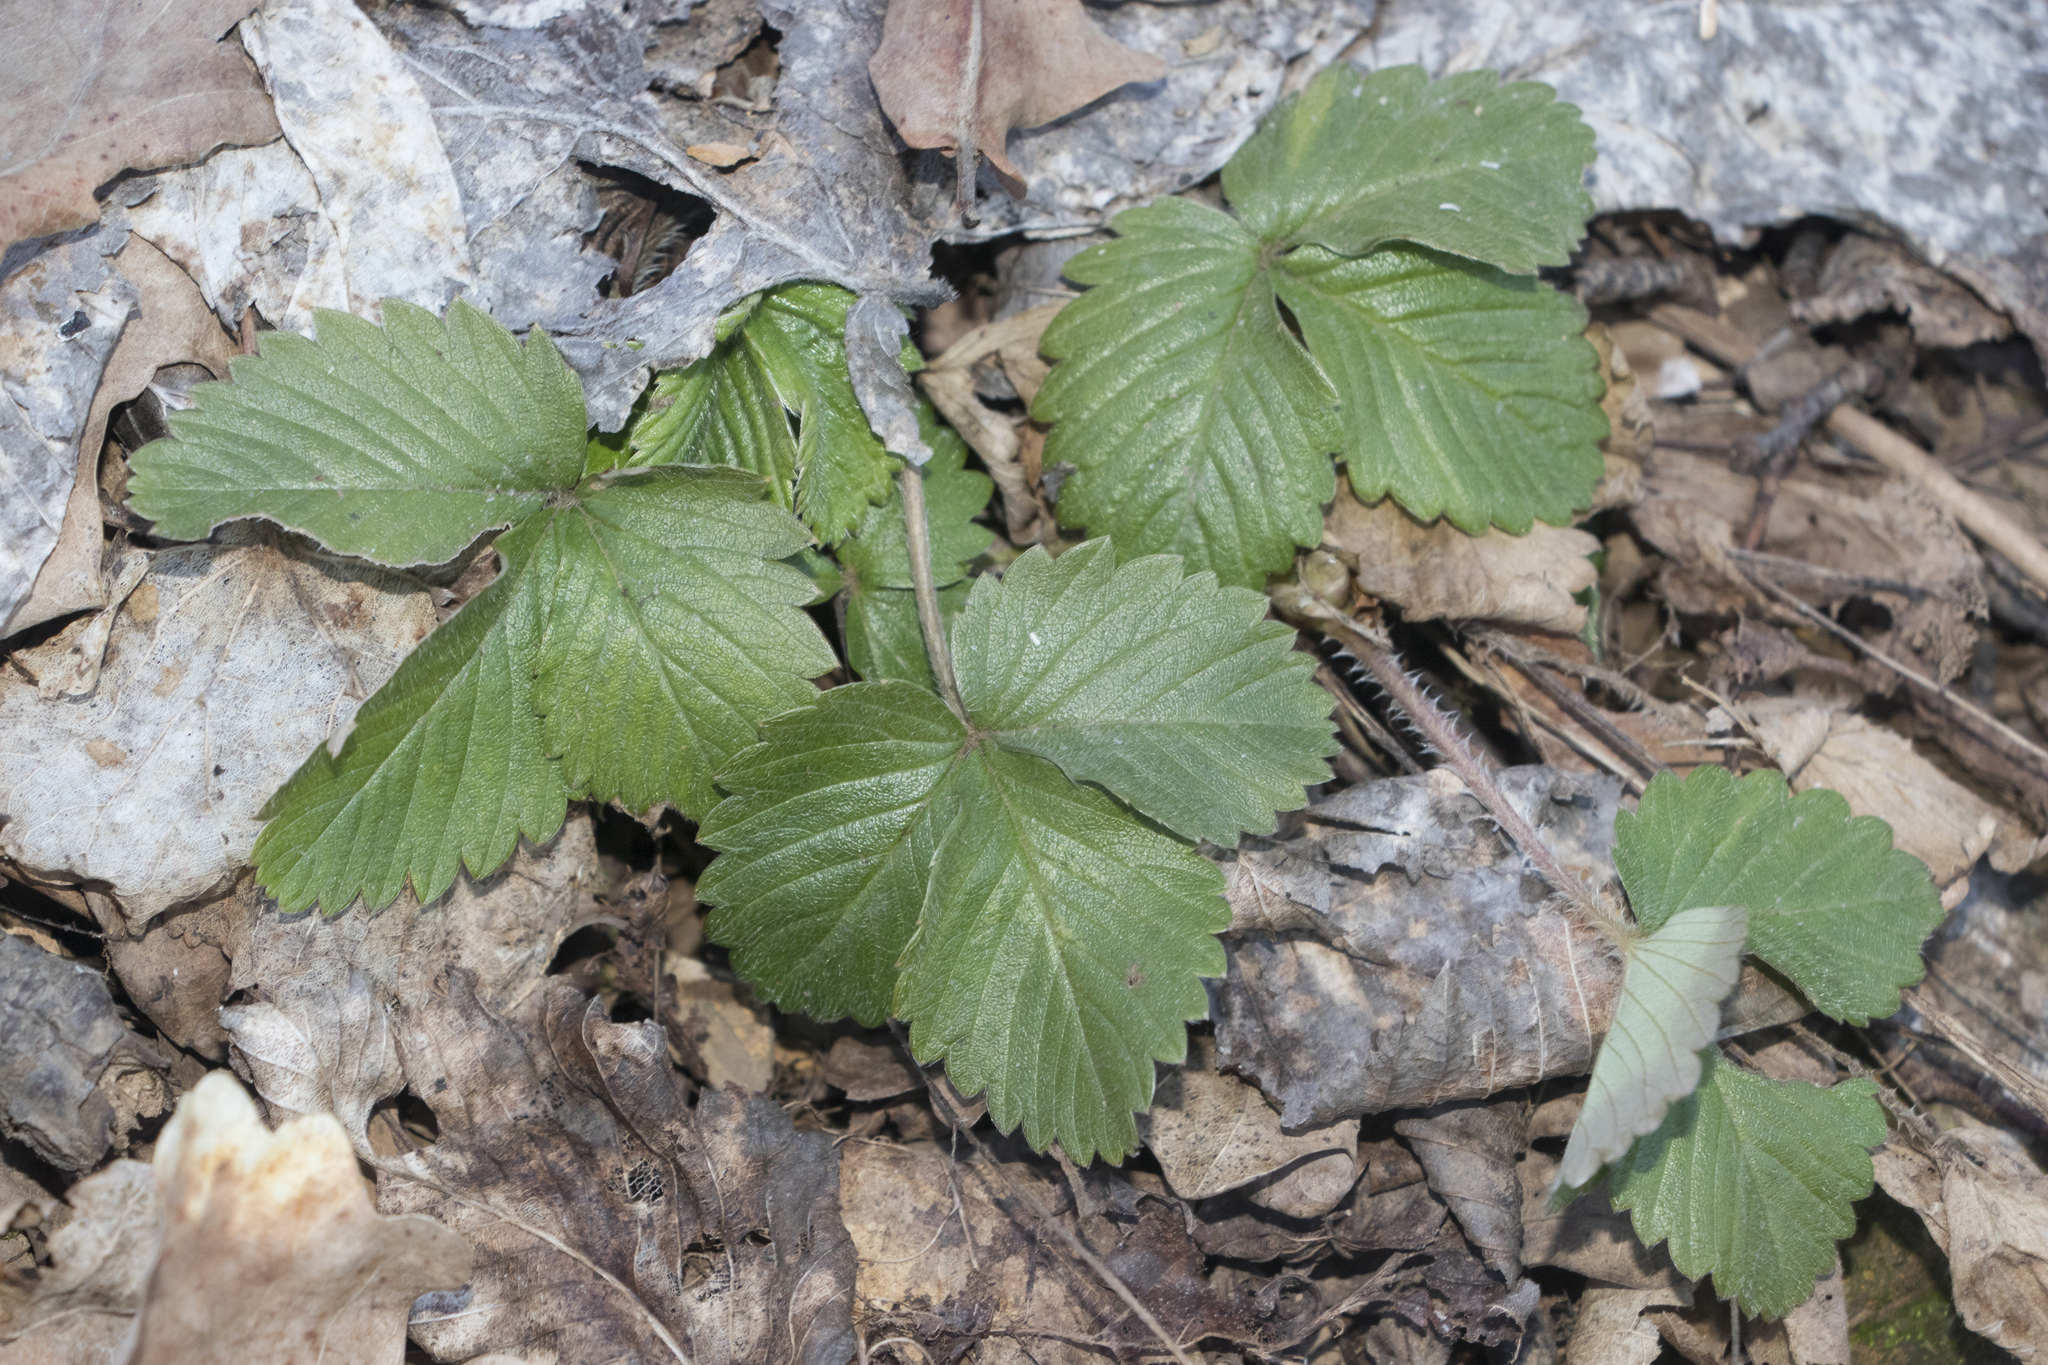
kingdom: Plantae
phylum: Tracheophyta
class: Magnoliopsida
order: Rosales
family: Rosaceae
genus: Fragaria
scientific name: Fragaria vesca
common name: Wild strawberry
